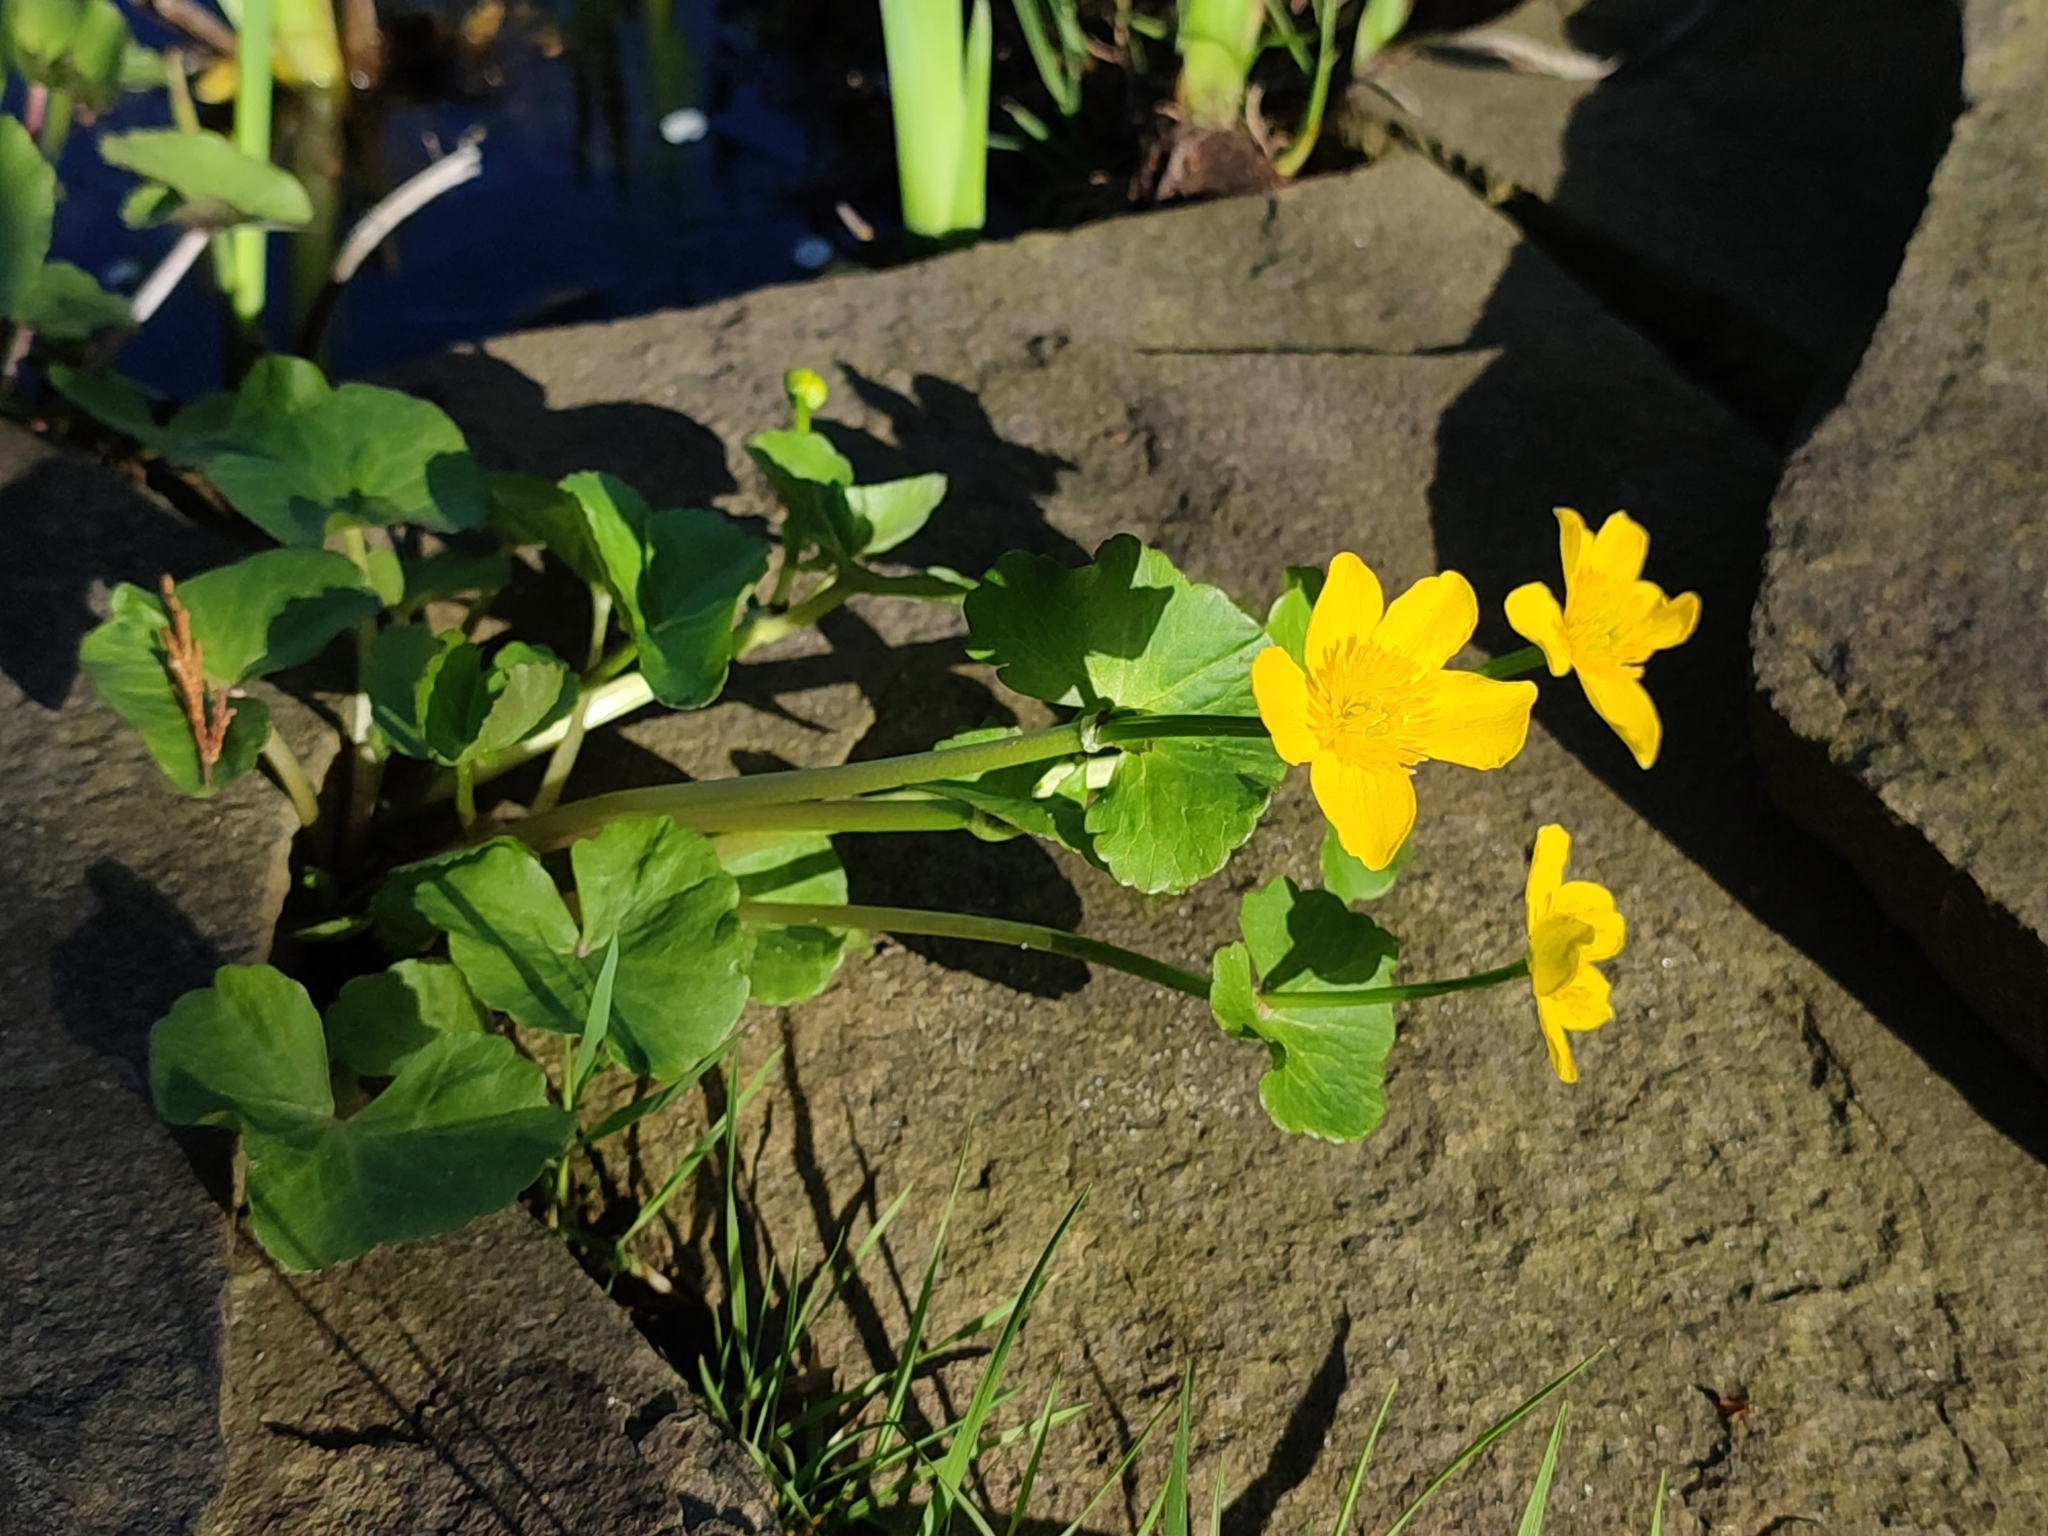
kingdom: Plantae
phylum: Tracheophyta
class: Magnoliopsida
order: Ranunculales
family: Ranunculaceae
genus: Caltha
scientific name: Caltha palustris
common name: Marsh marigold
